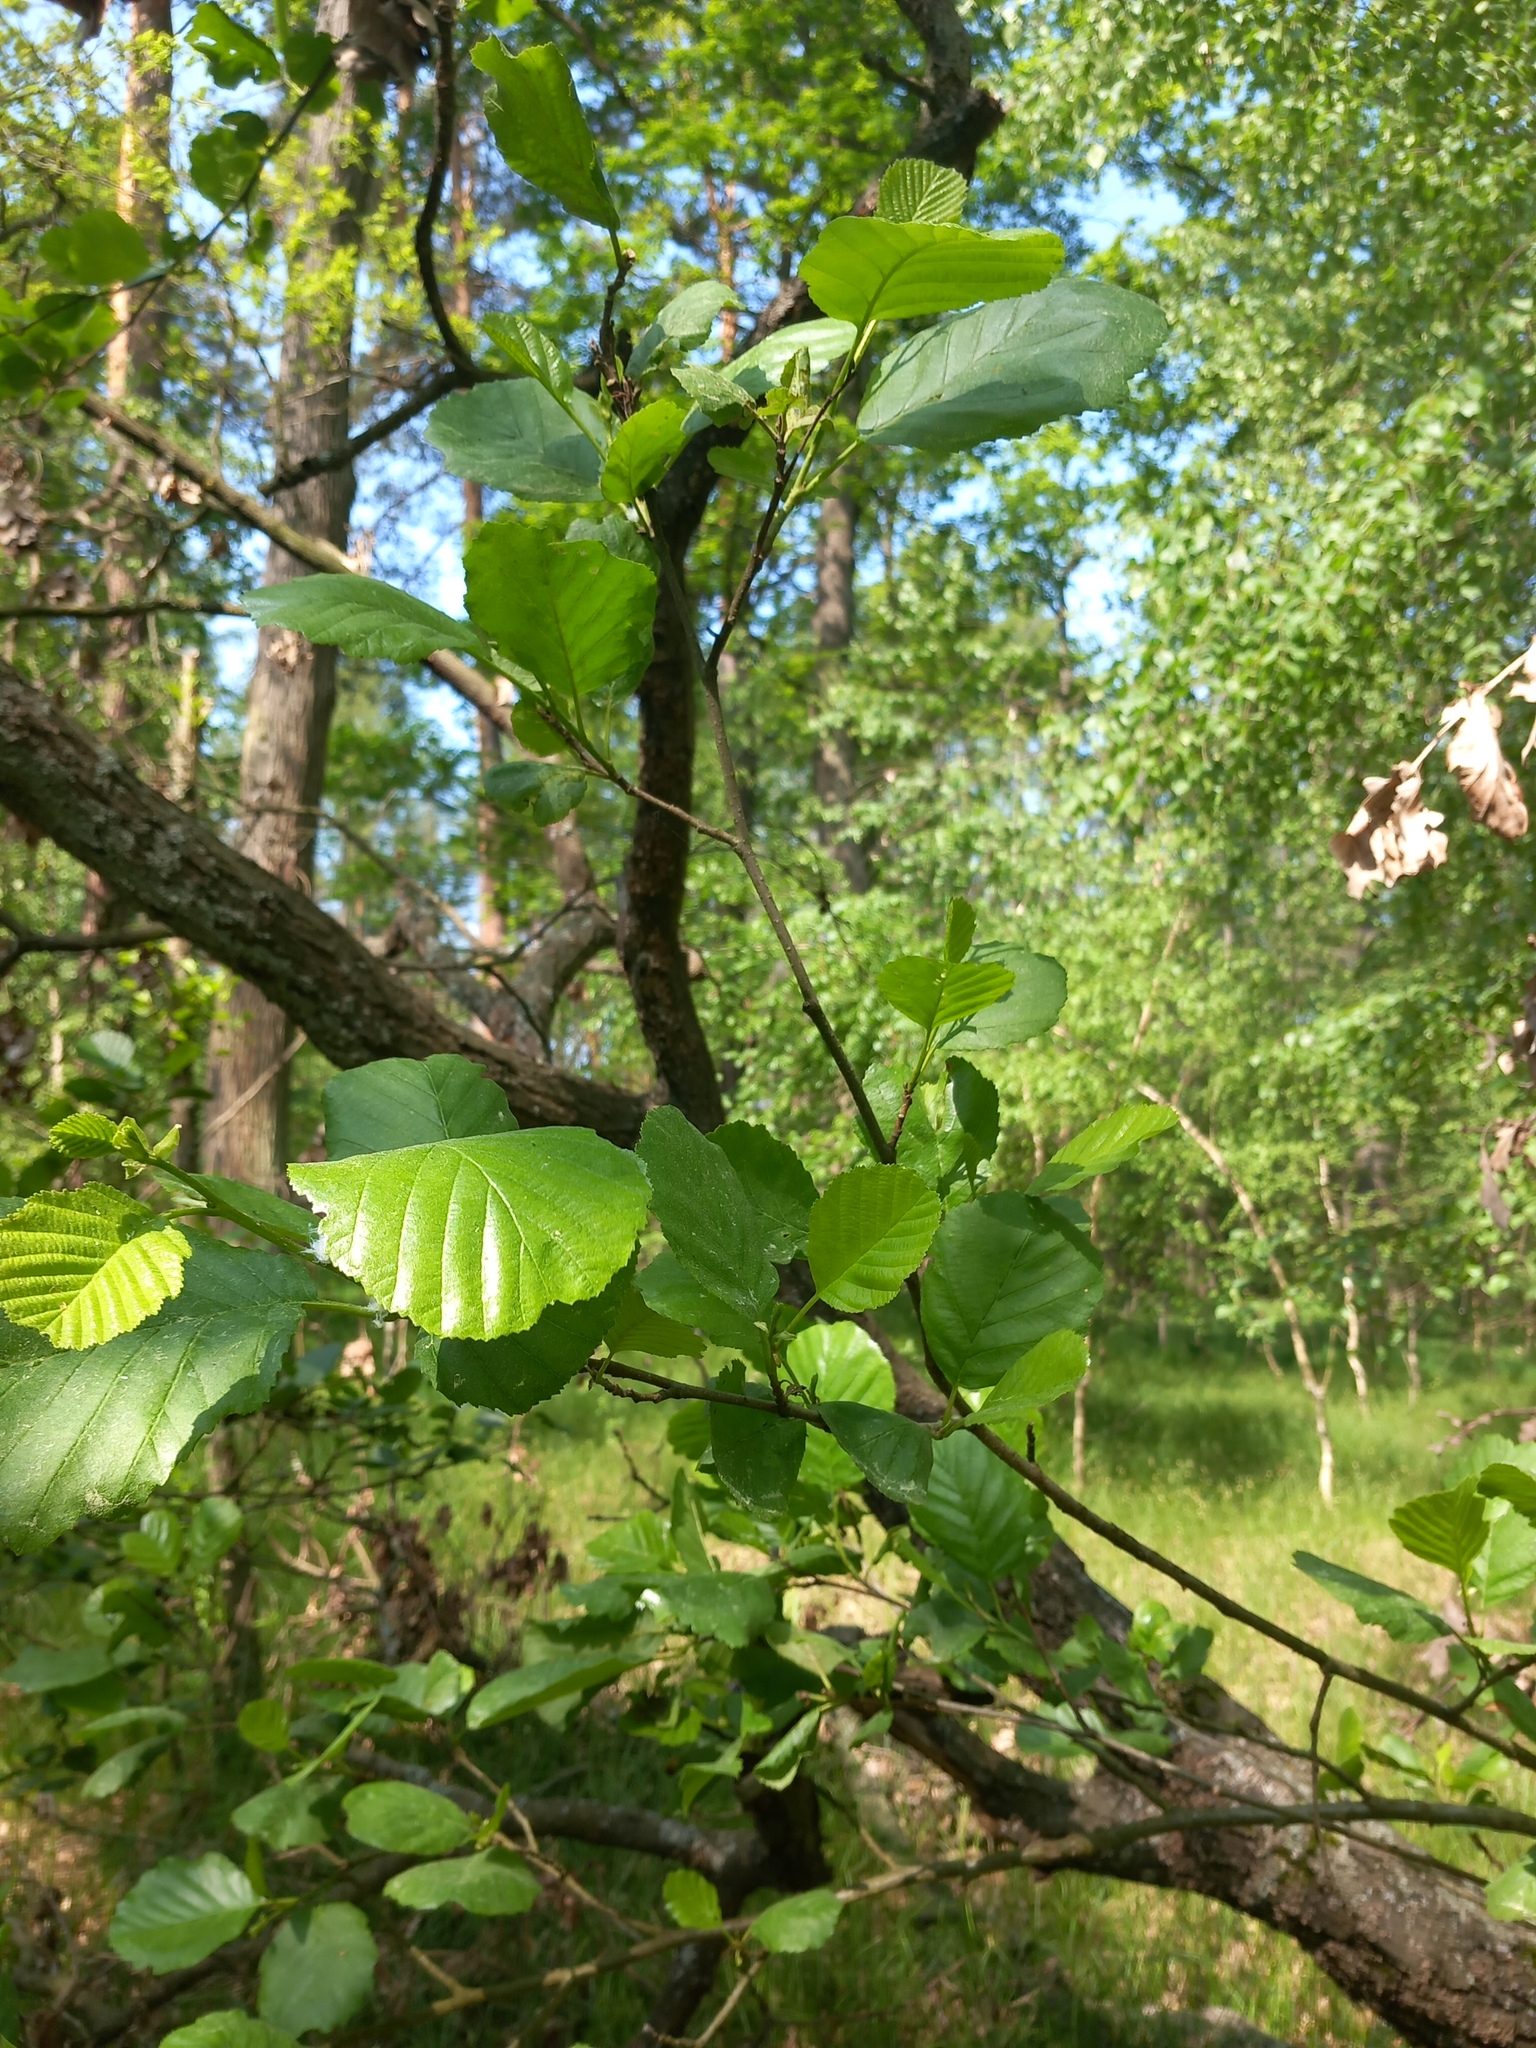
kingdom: Plantae
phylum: Tracheophyta
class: Magnoliopsida
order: Fagales
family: Betulaceae
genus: Alnus
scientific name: Alnus glutinosa
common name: Black alder
